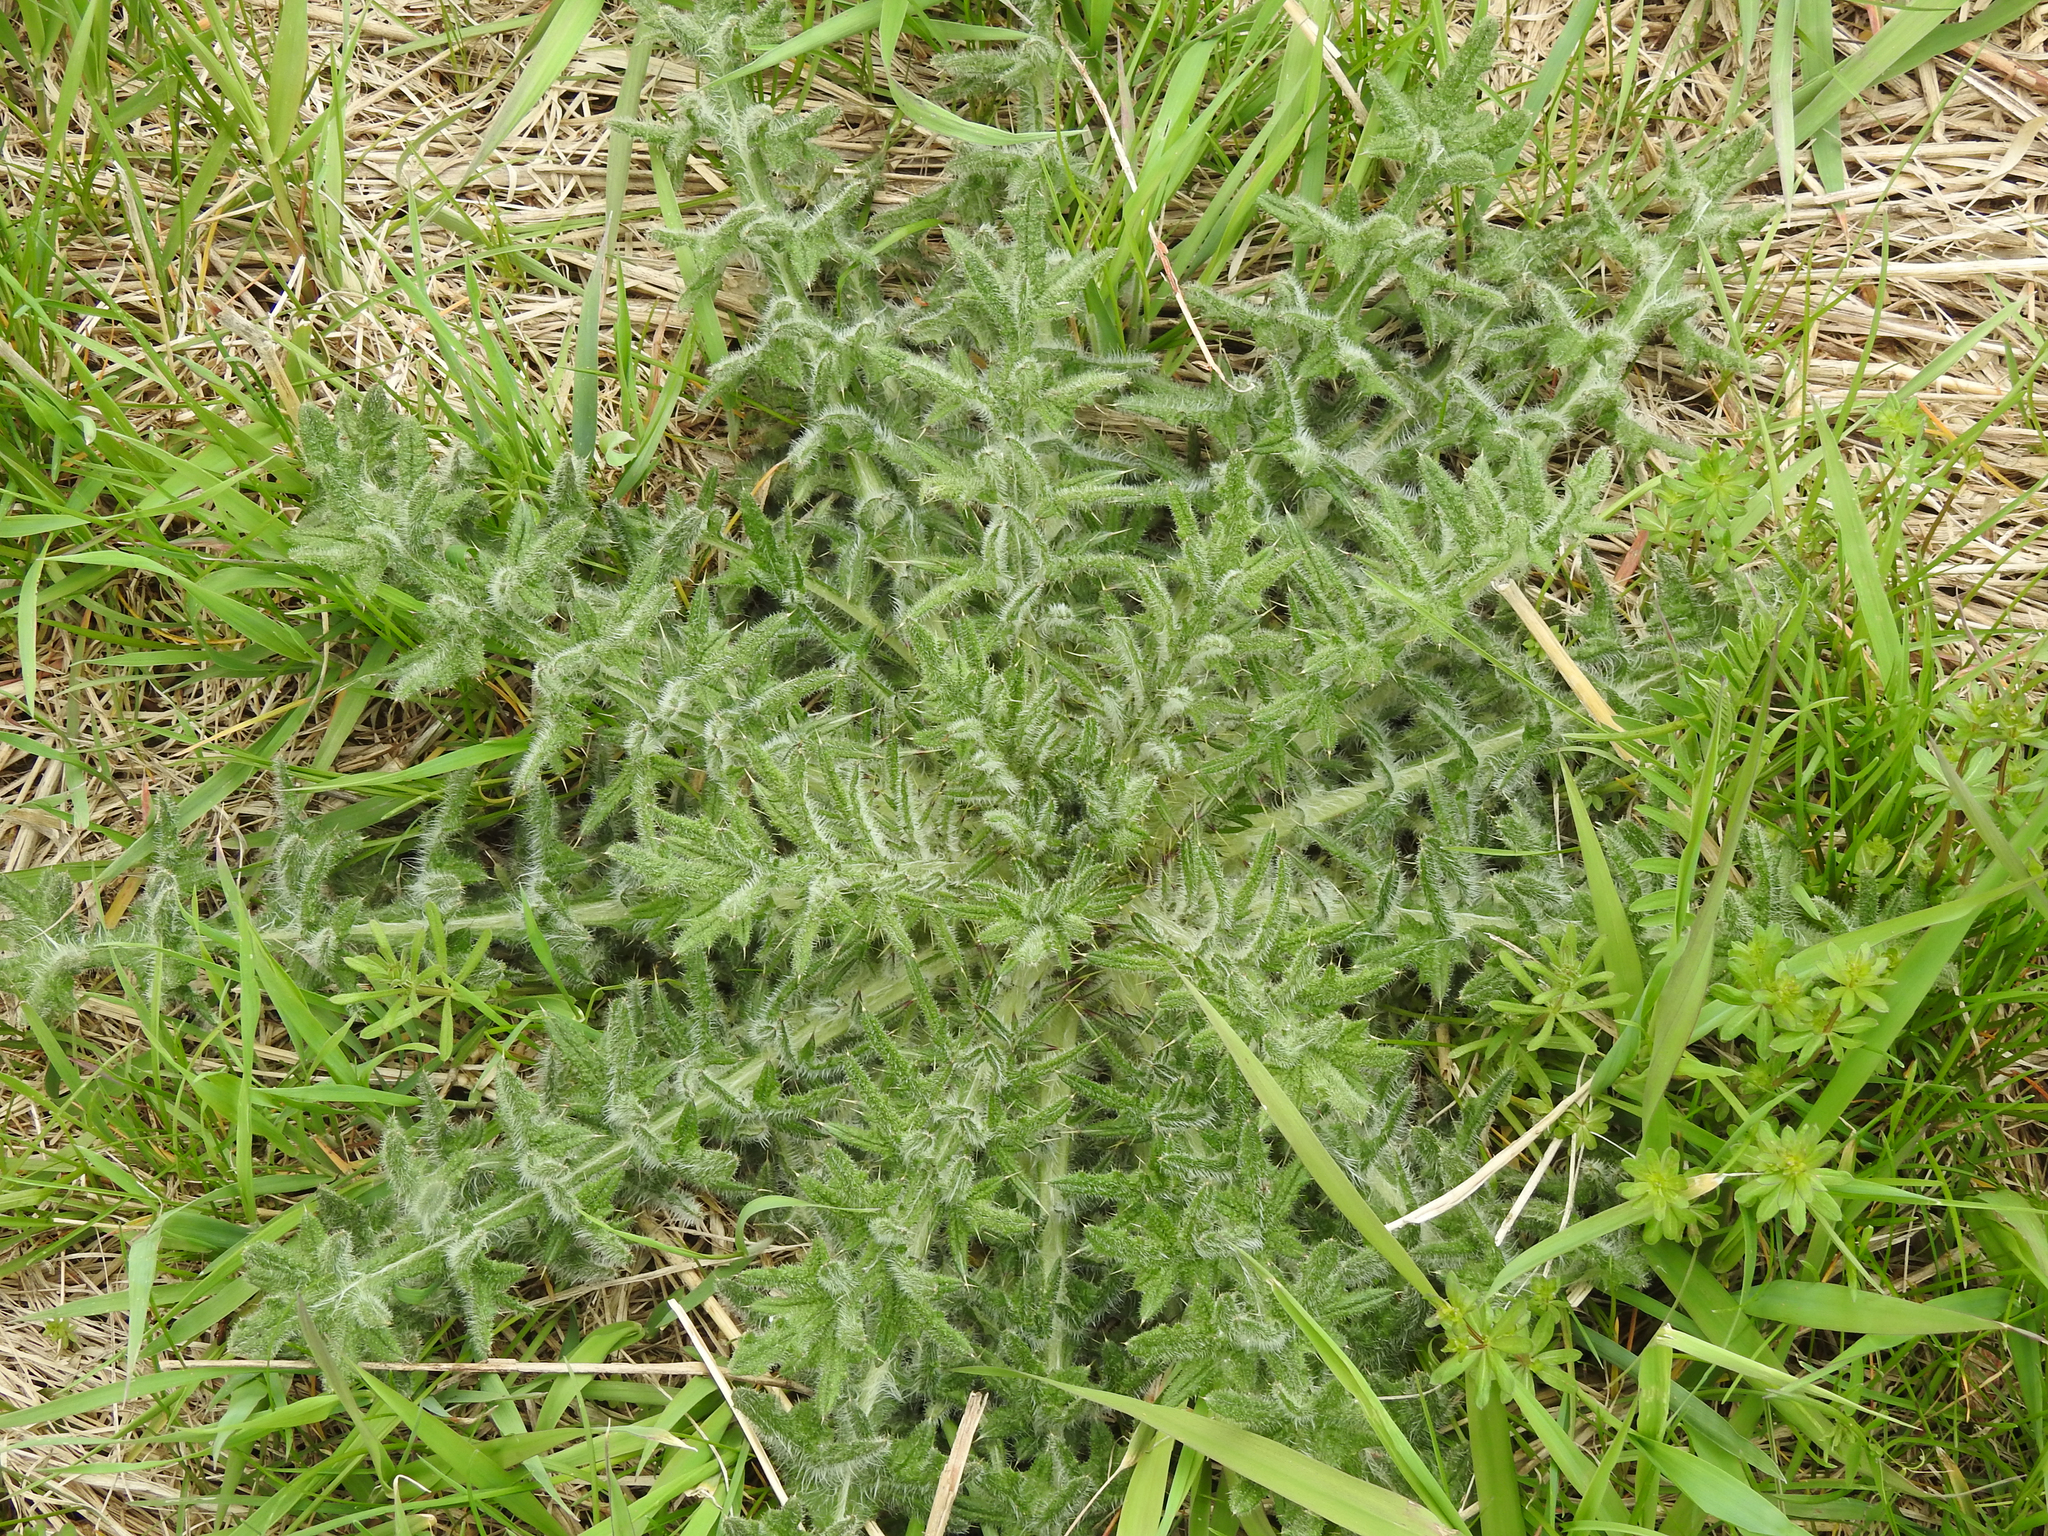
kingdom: Plantae
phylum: Tracheophyta
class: Magnoliopsida
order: Asterales
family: Asteraceae
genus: Cirsium
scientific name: Cirsium vulgare
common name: Bull thistle
